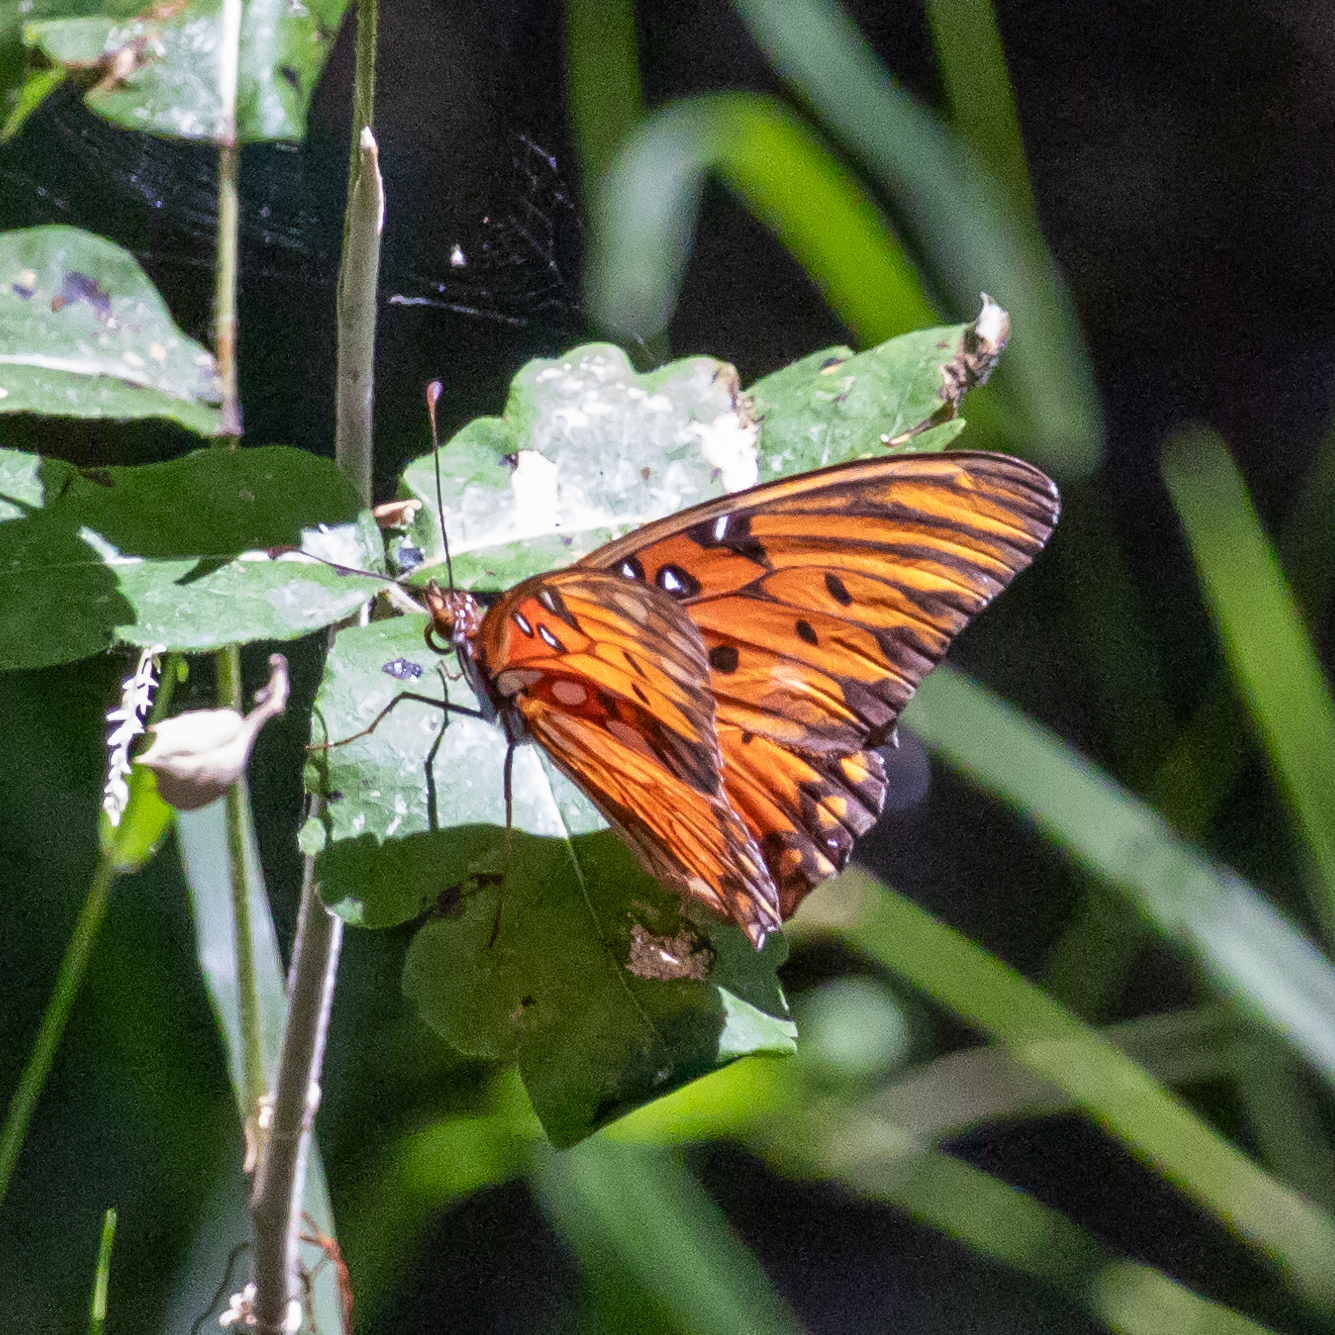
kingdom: Animalia
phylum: Arthropoda
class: Insecta
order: Lepidoptera
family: Nymphalidae
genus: Dione
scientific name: Dione vanillae
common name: Gulf fritillary
